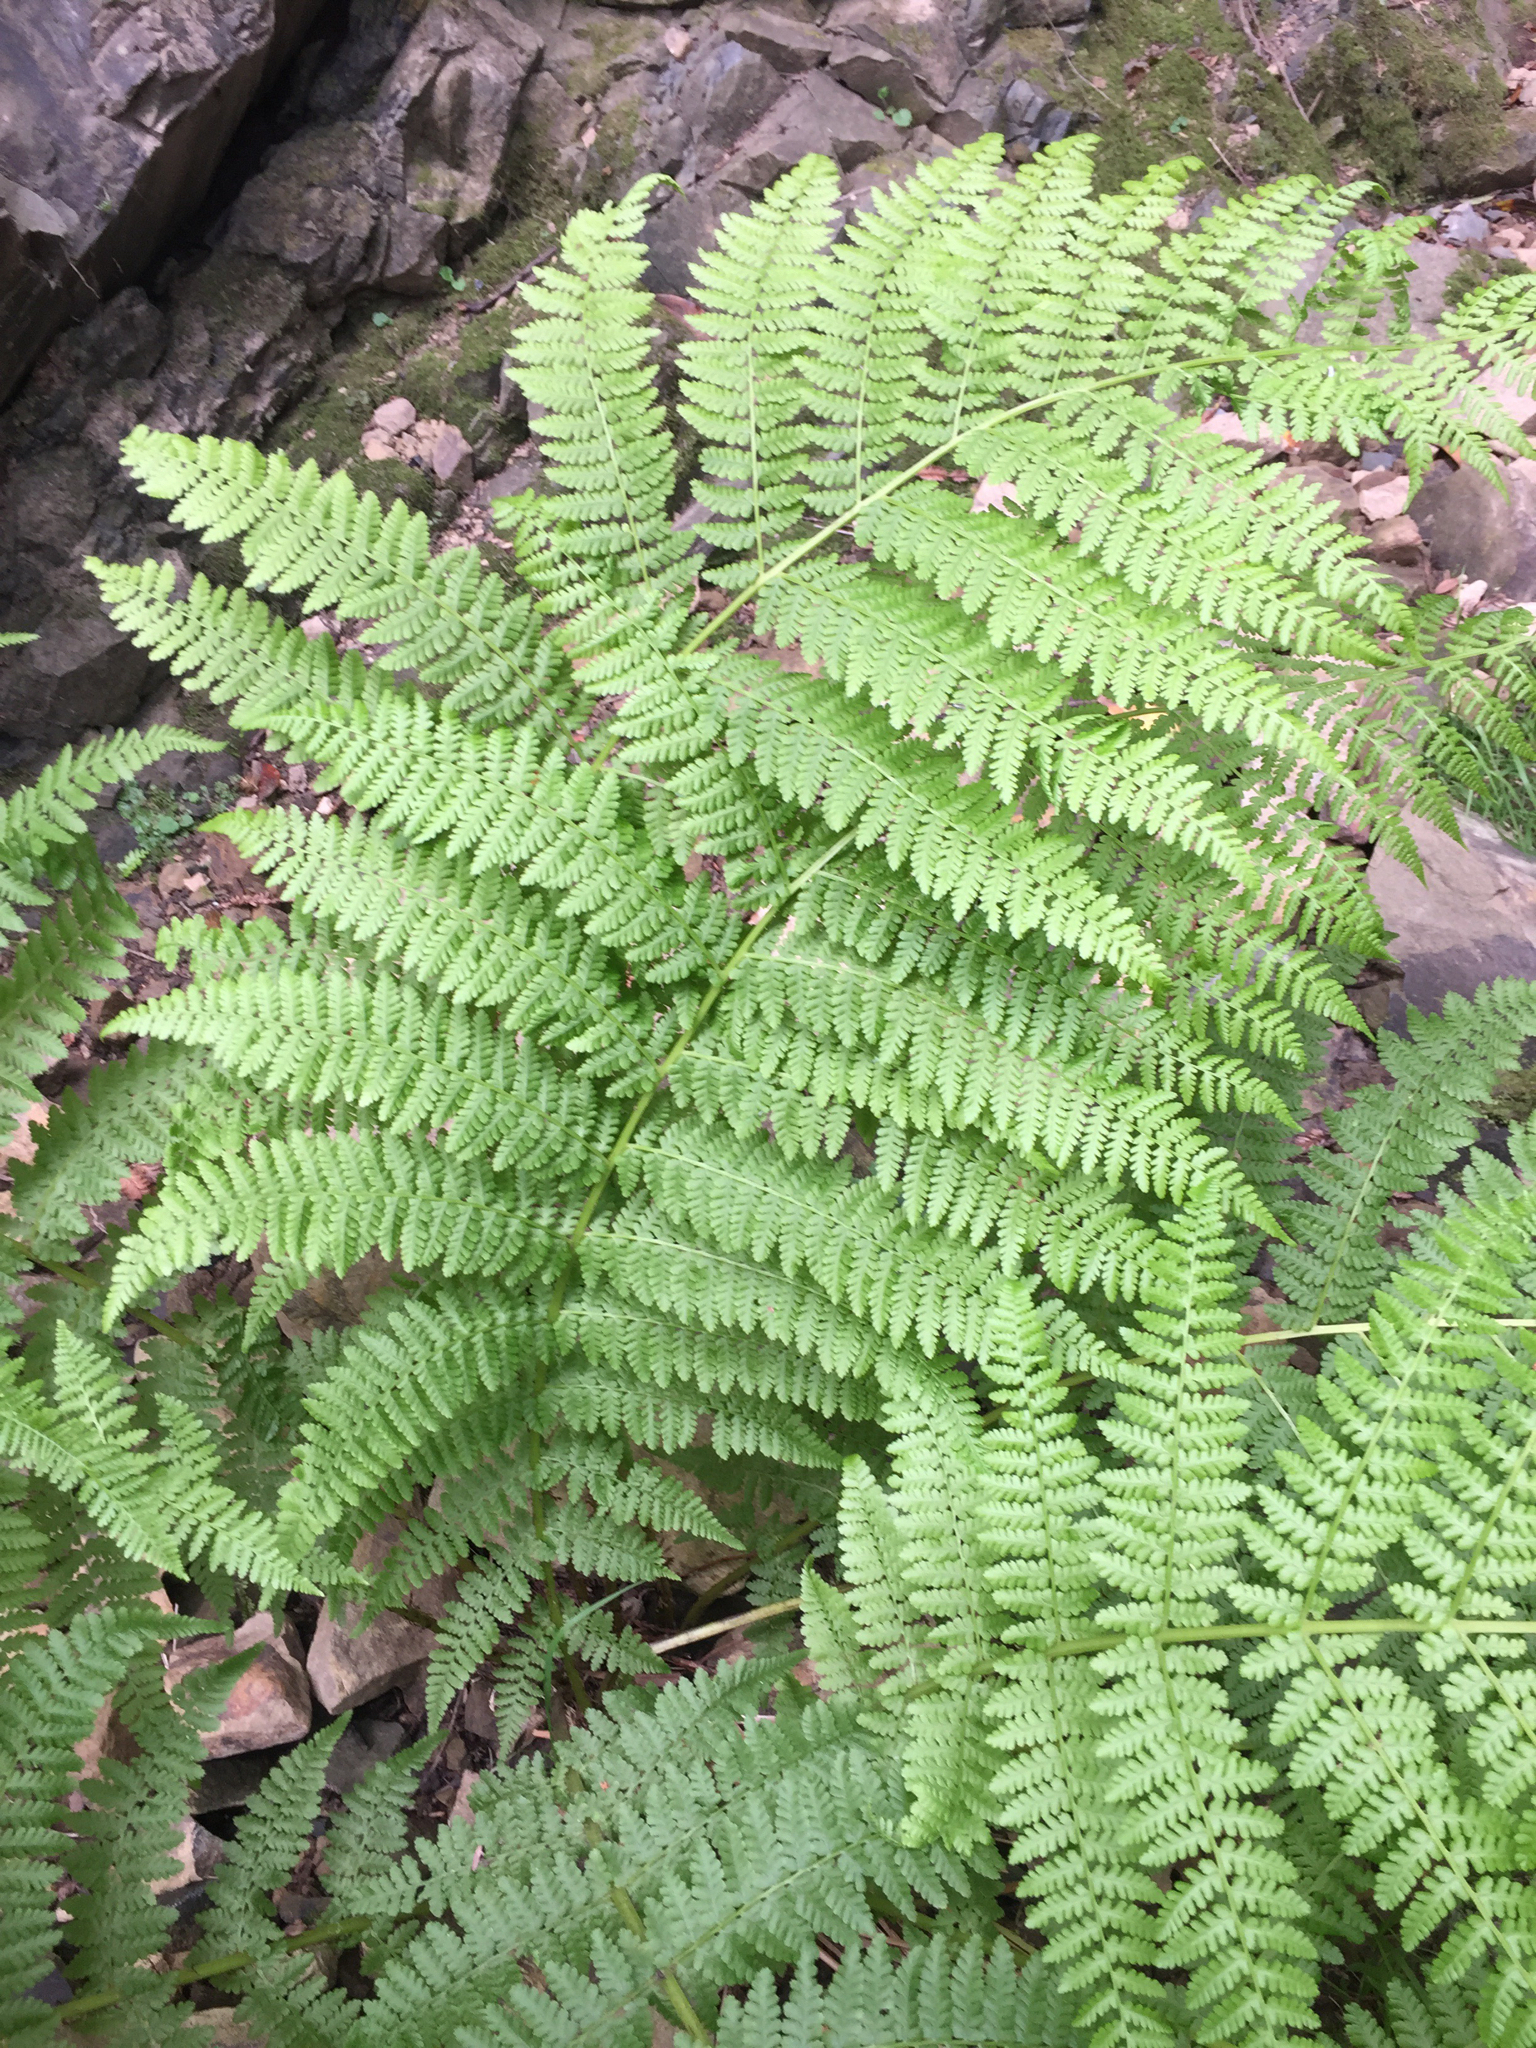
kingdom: Plantae
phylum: Tracheophyta
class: Polypodiopsida
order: Polypodiales
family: Athyriaceae
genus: Athyrium
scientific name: Athyrium cyclosorum
